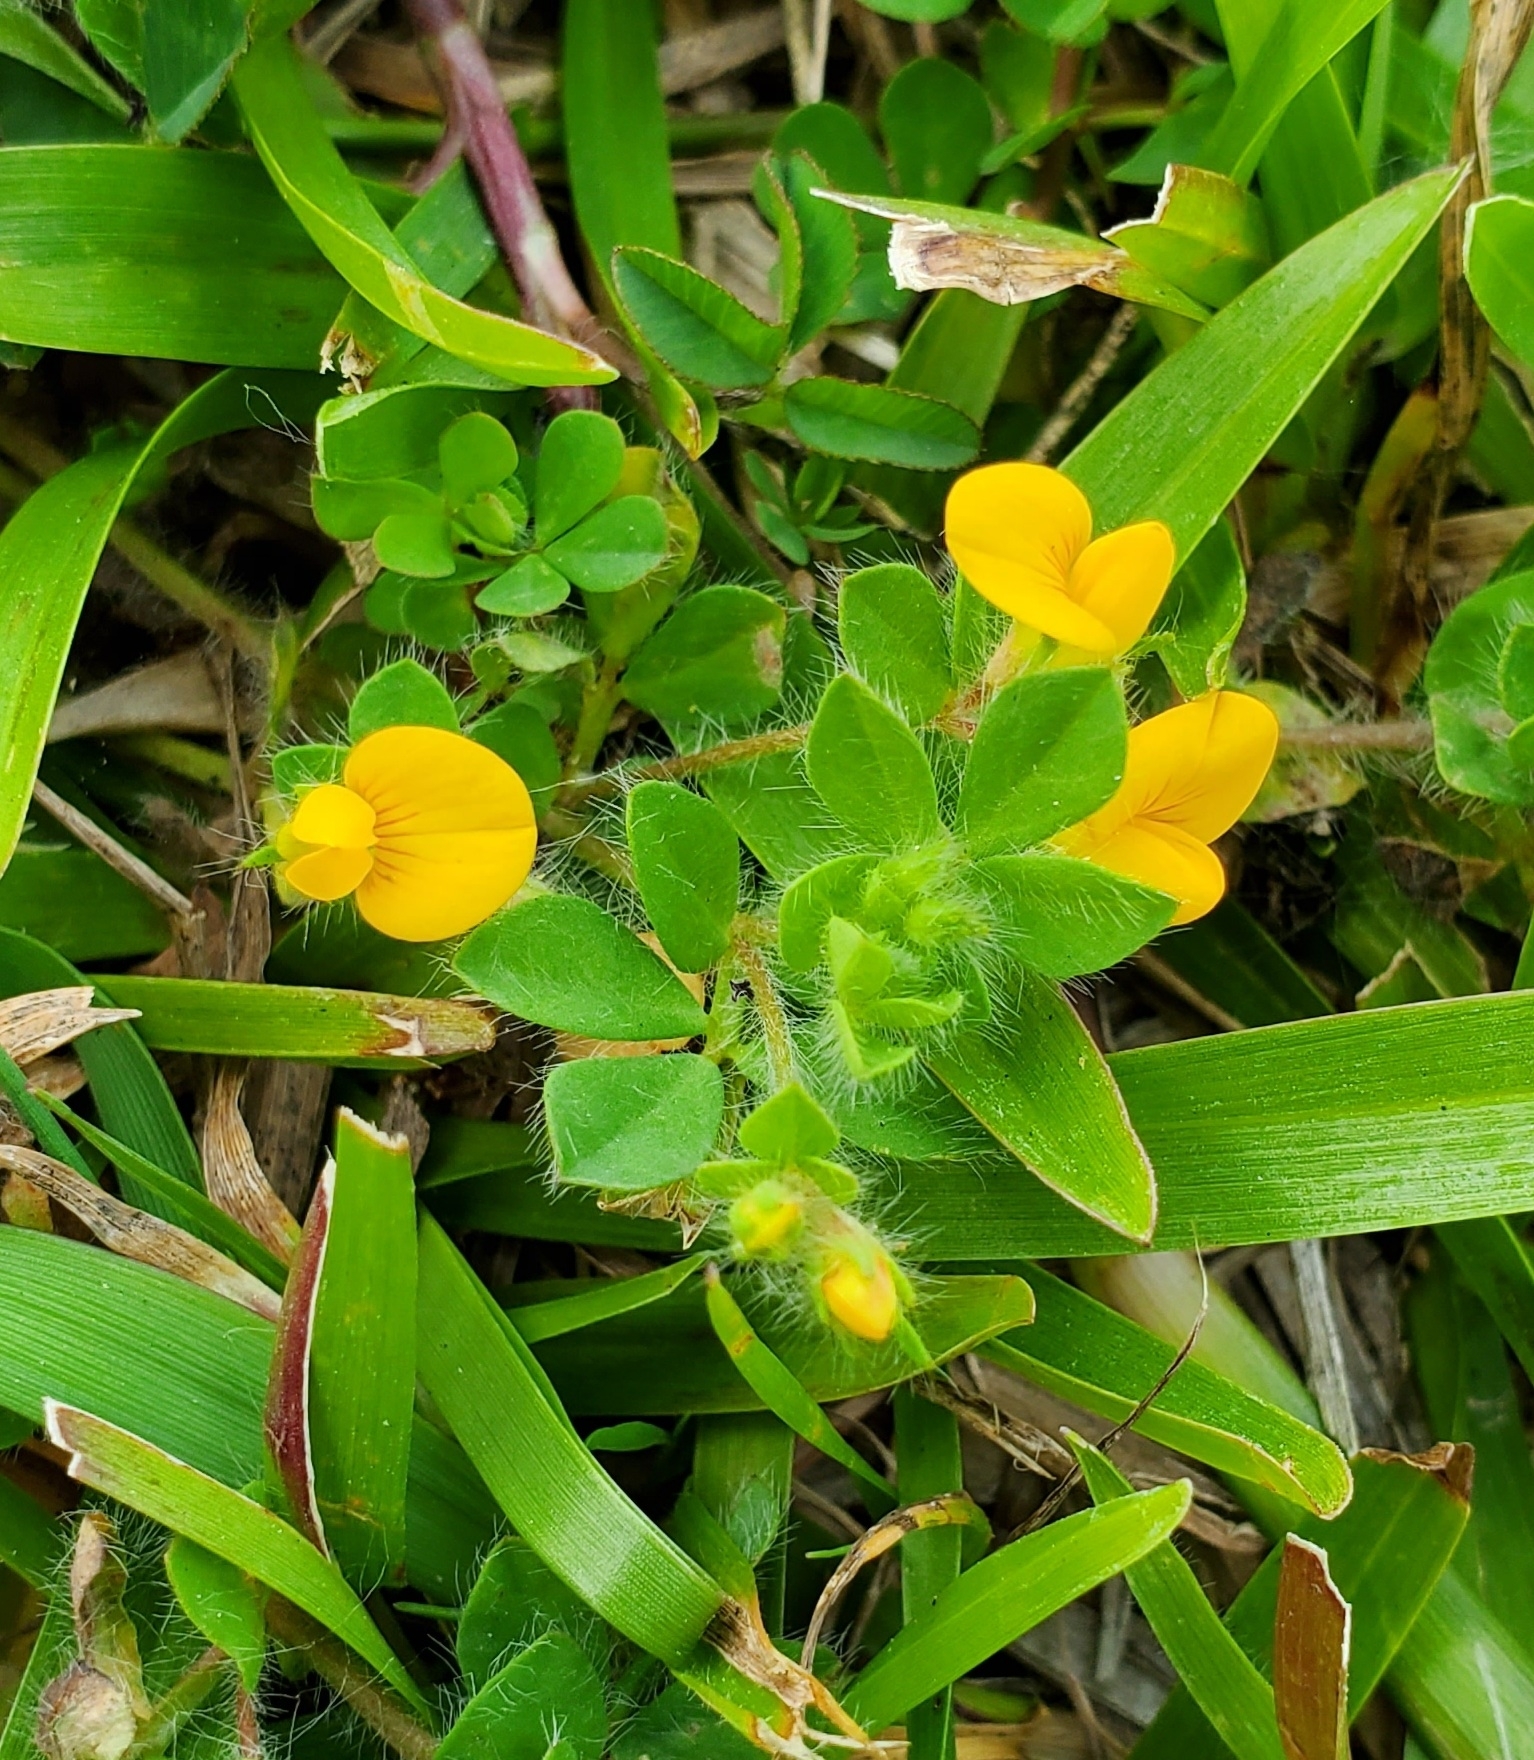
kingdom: Plantae
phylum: Tracheophyta
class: Magnoliopsida
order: Fabales
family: Fabaceae
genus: Lotus
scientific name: Lotus subbiflorus
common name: Hairy bird's-foot trefoil
